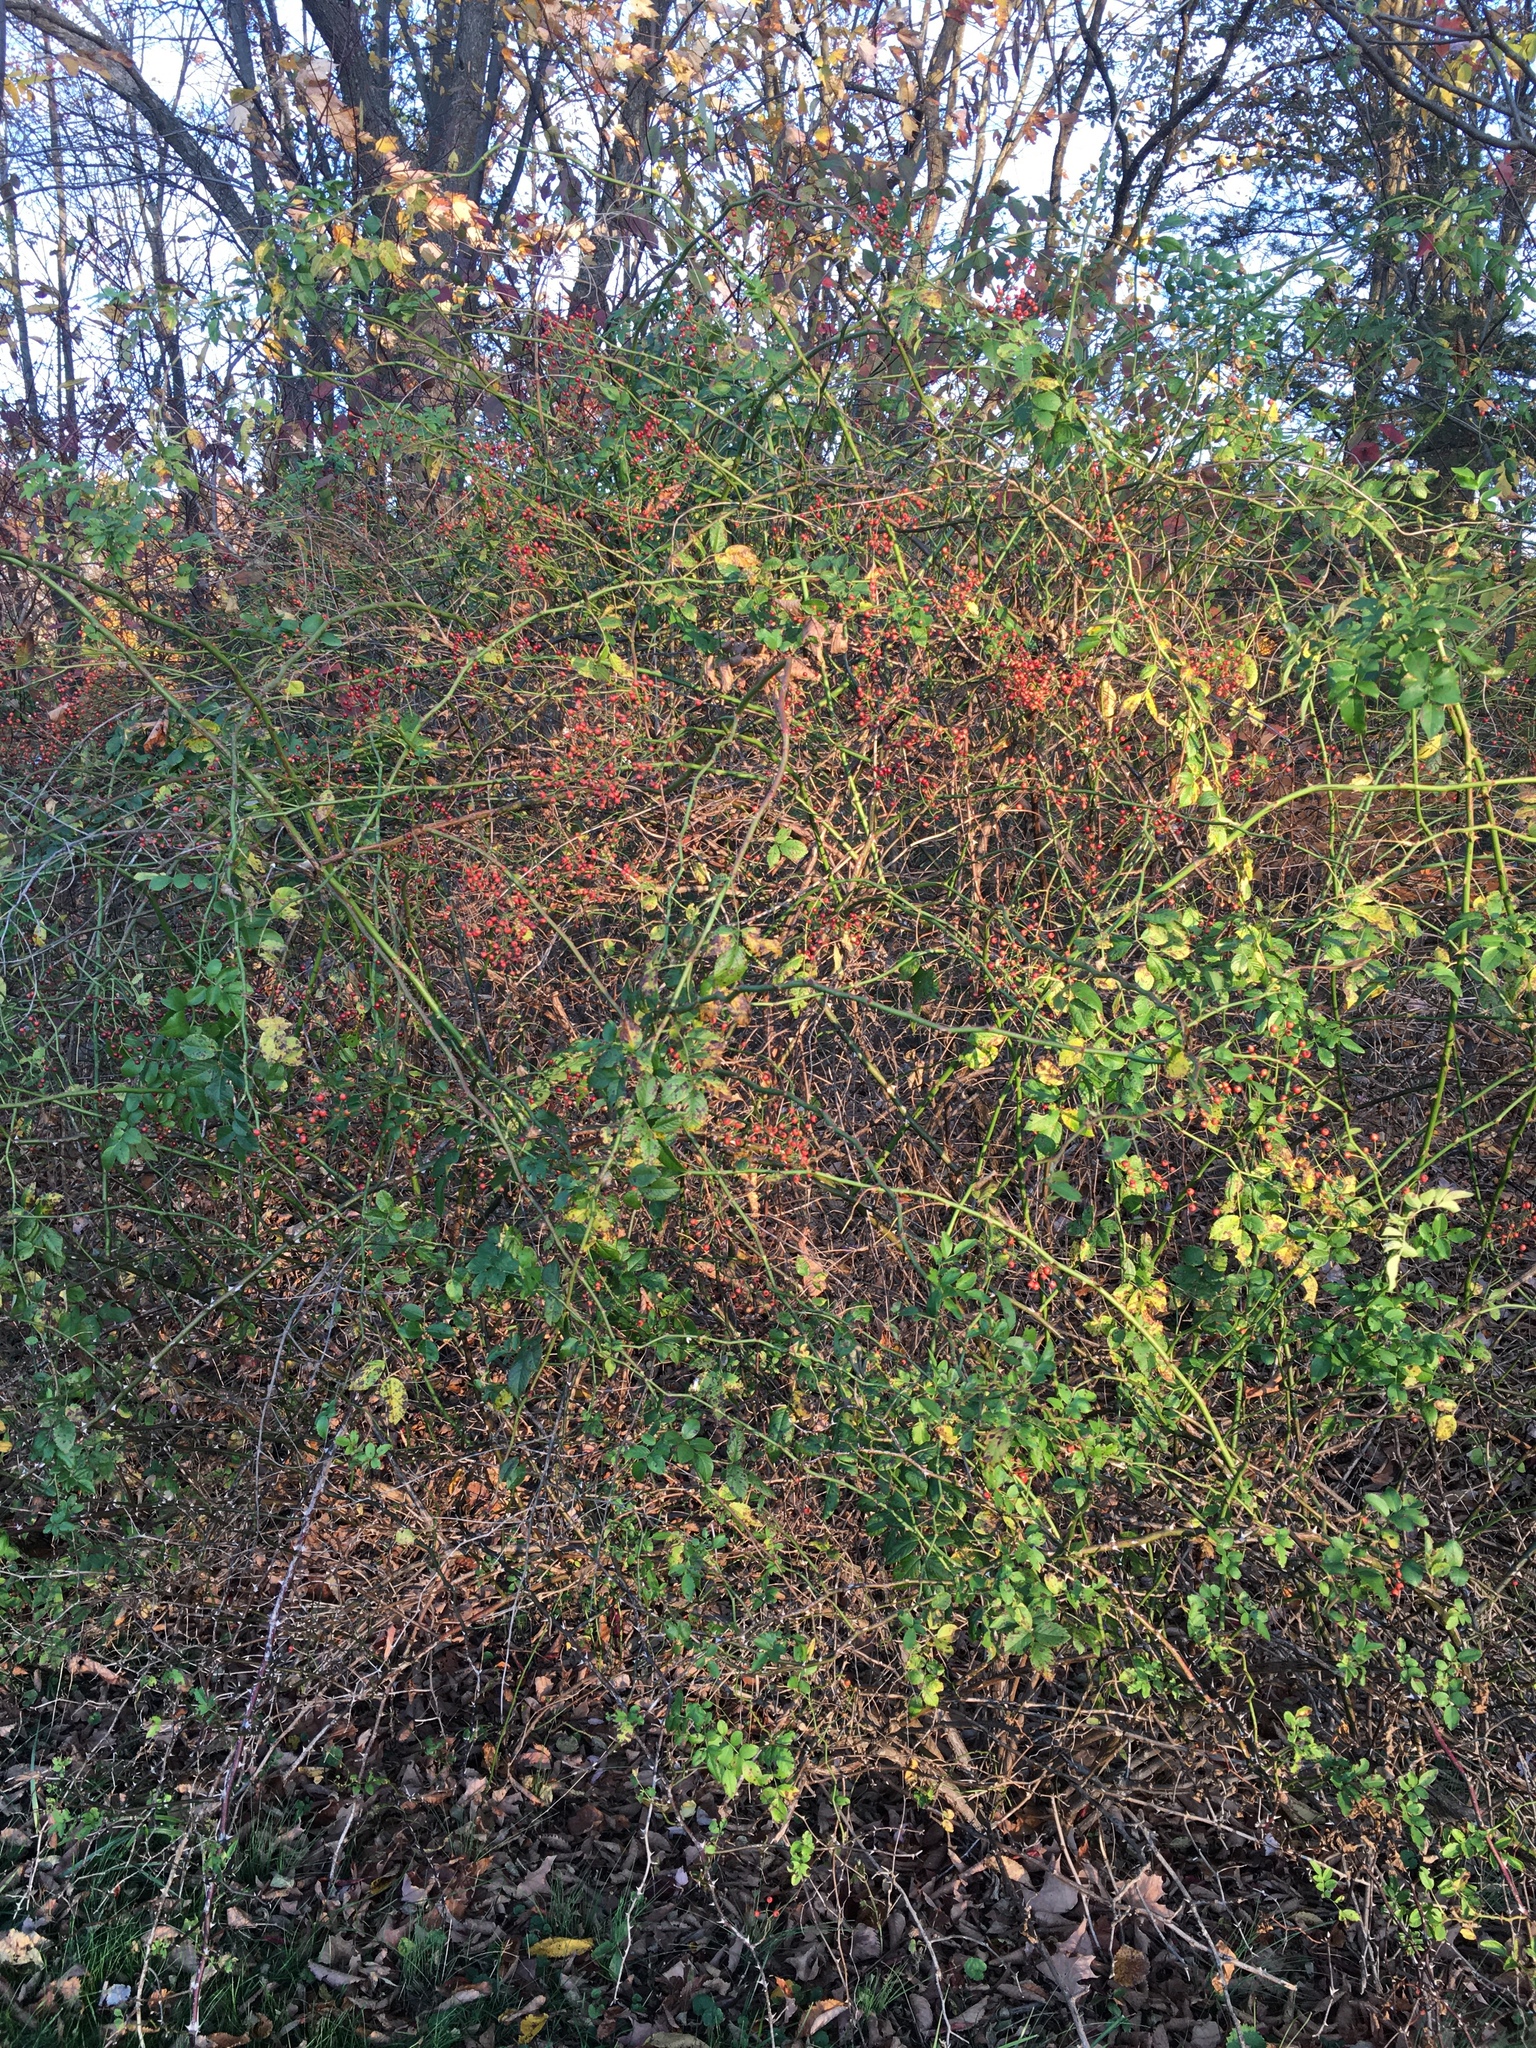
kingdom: Plantae
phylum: Tracheophyta
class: Magnoliopsida
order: Rosales
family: Rosaceae
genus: Rosa
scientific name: Rosa multiflora
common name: Multiflora rose
